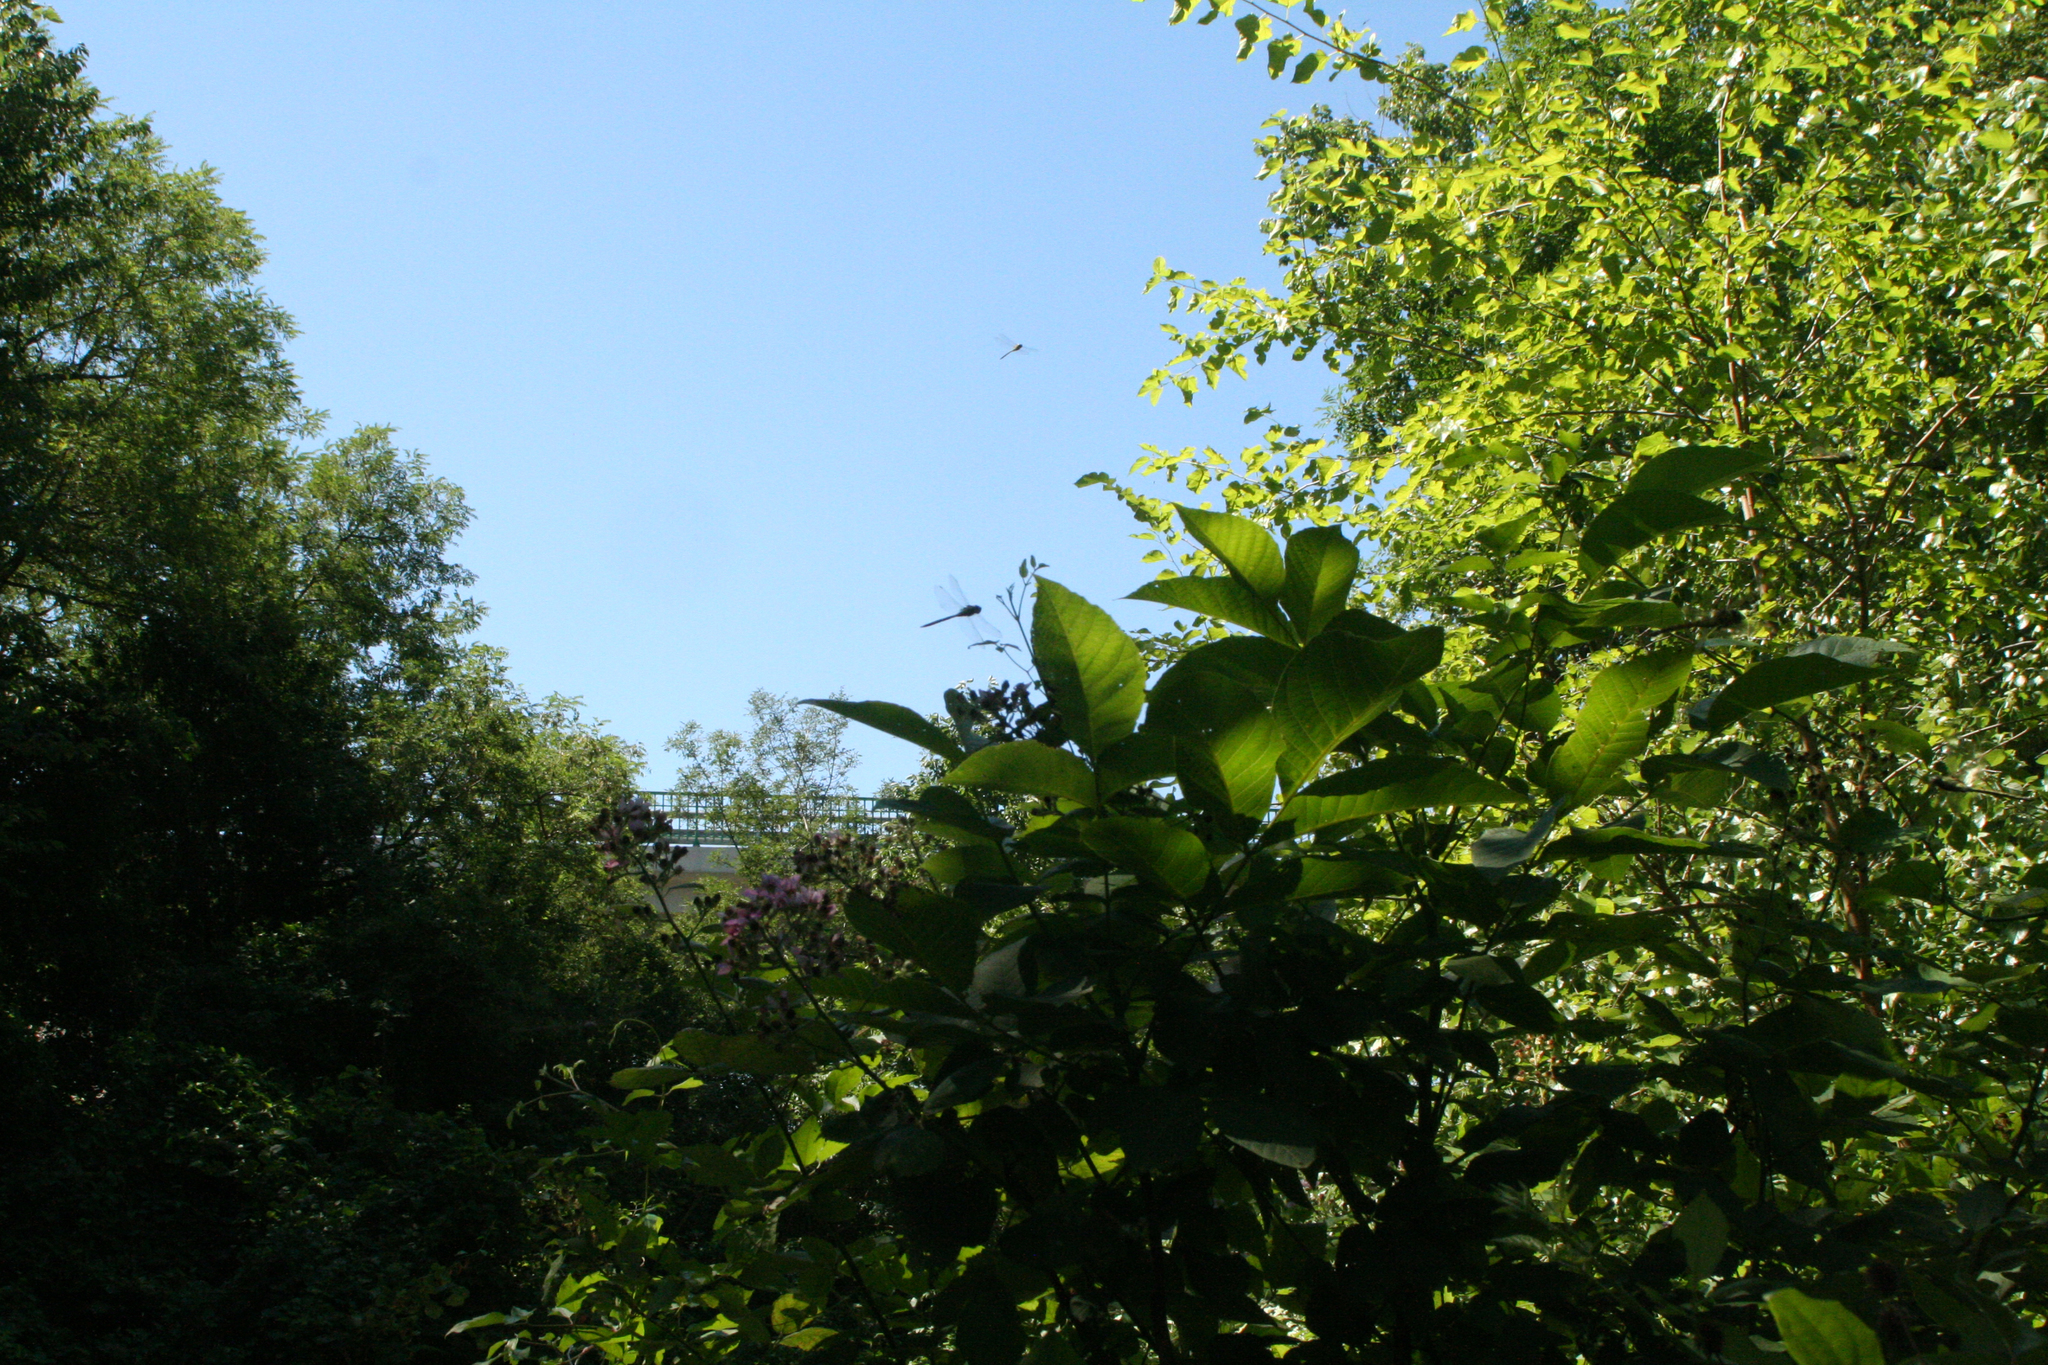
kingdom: Animalia
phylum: Arthropoda
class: Insecta
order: Odonata
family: Aeshnidae
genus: Aeshna
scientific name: Aeshna affinis
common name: Southern migrant hawker
